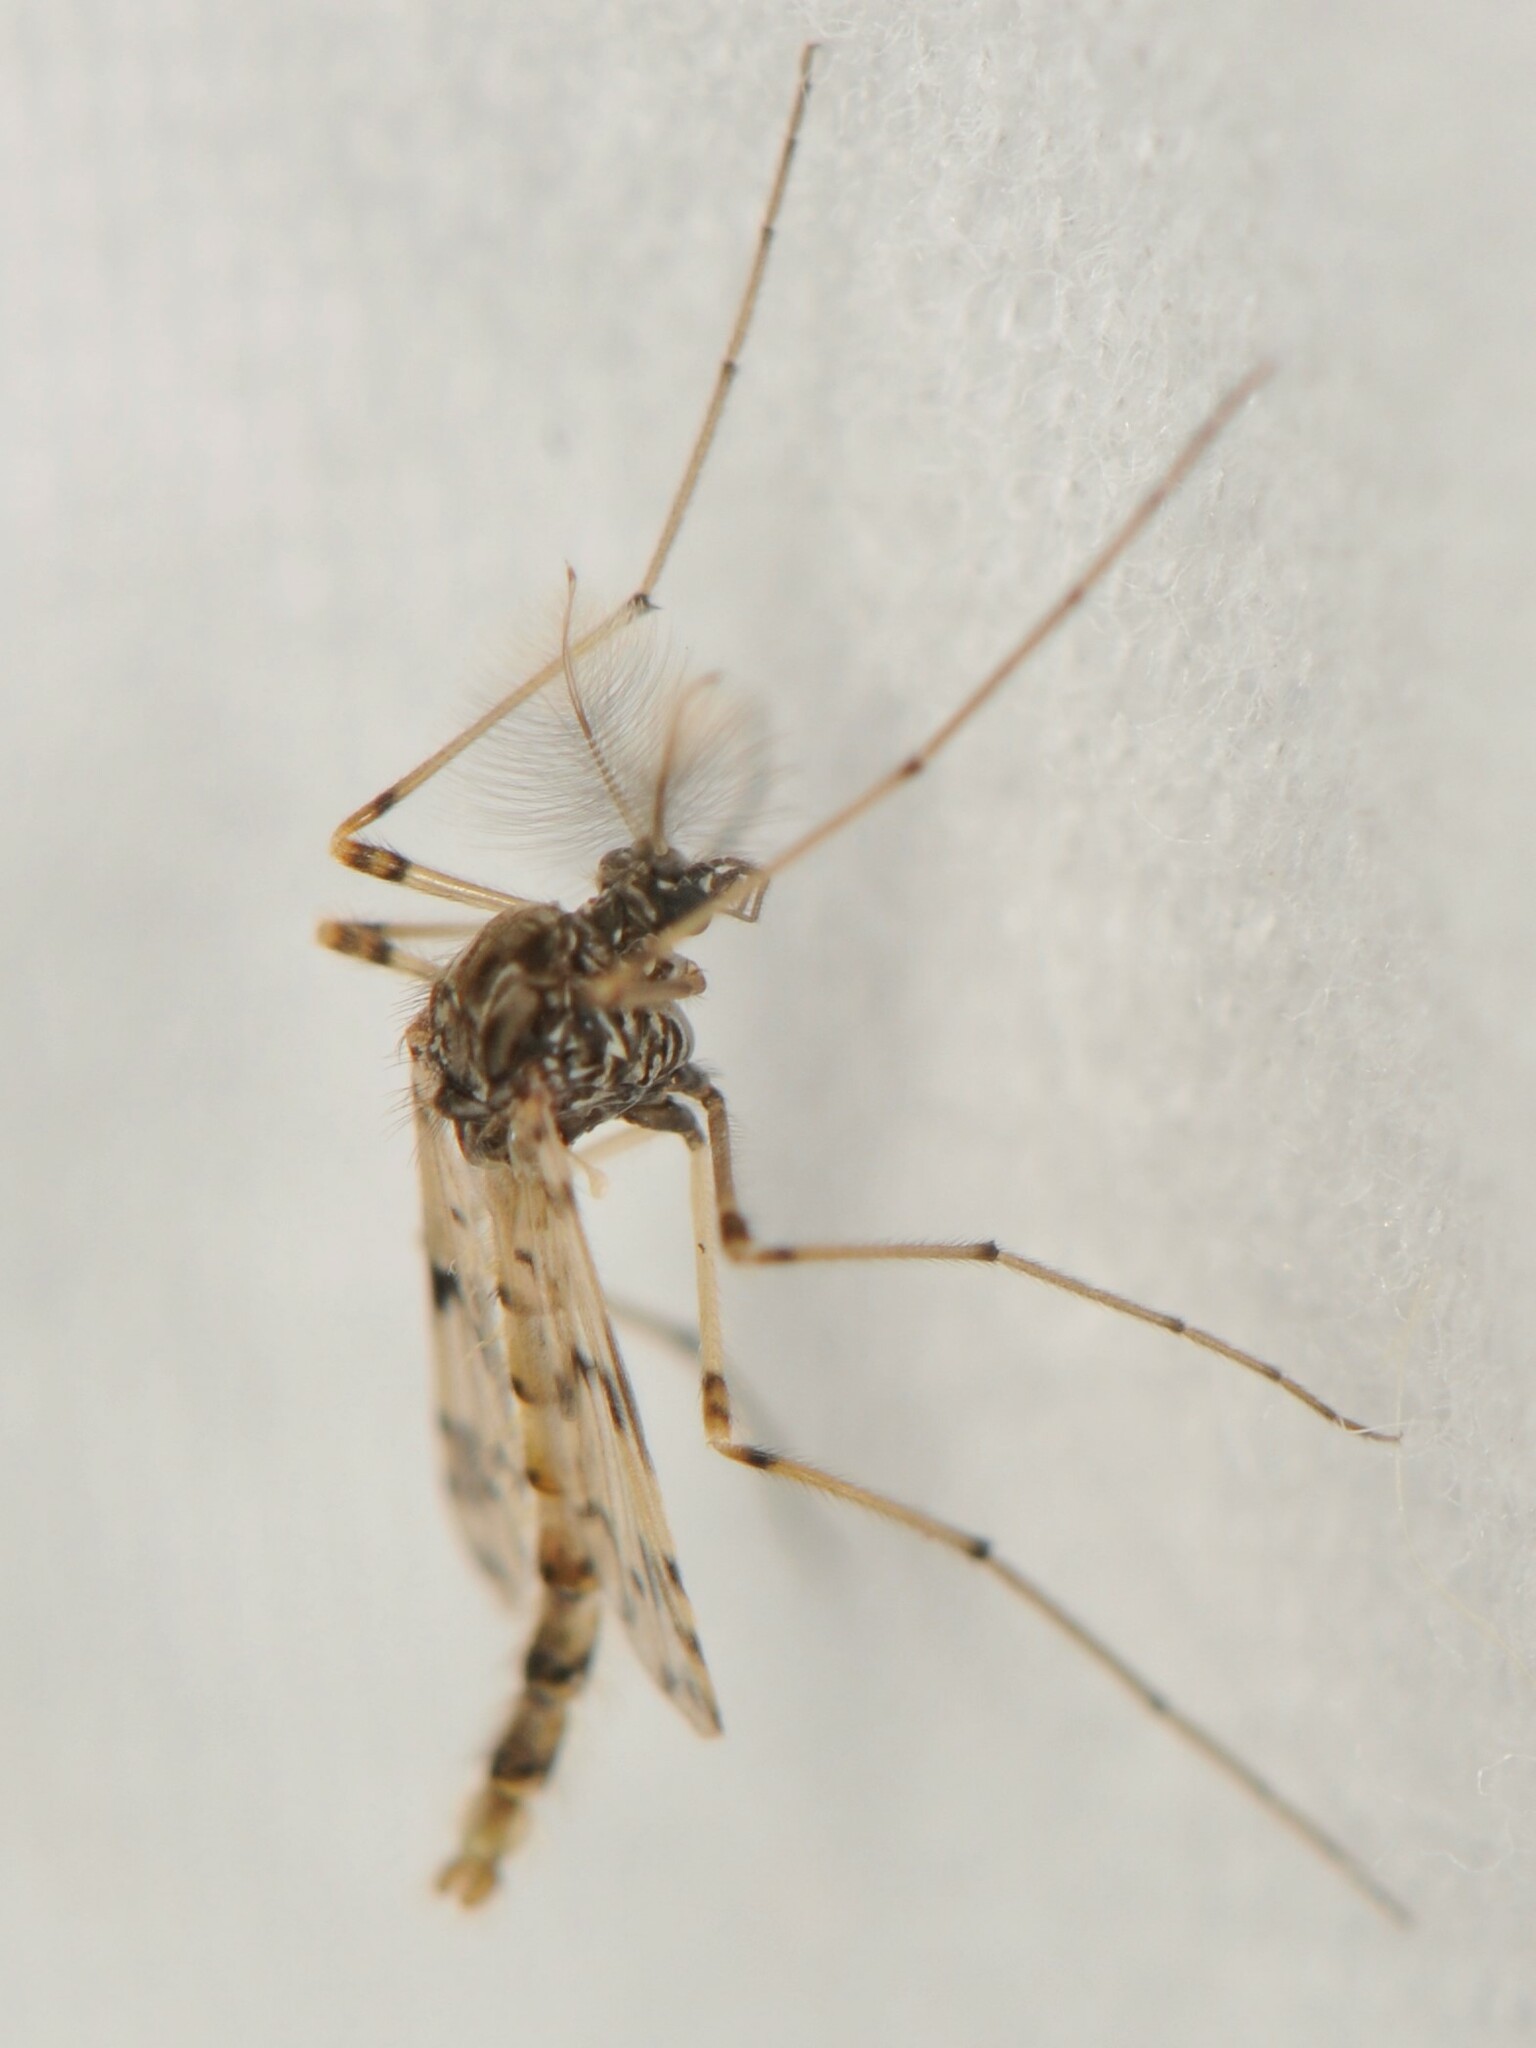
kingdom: Animalia
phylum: Arthropoda
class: Insecta
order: Diptera
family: Chironomidae
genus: Alotanypus
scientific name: Alotanypus venusta
